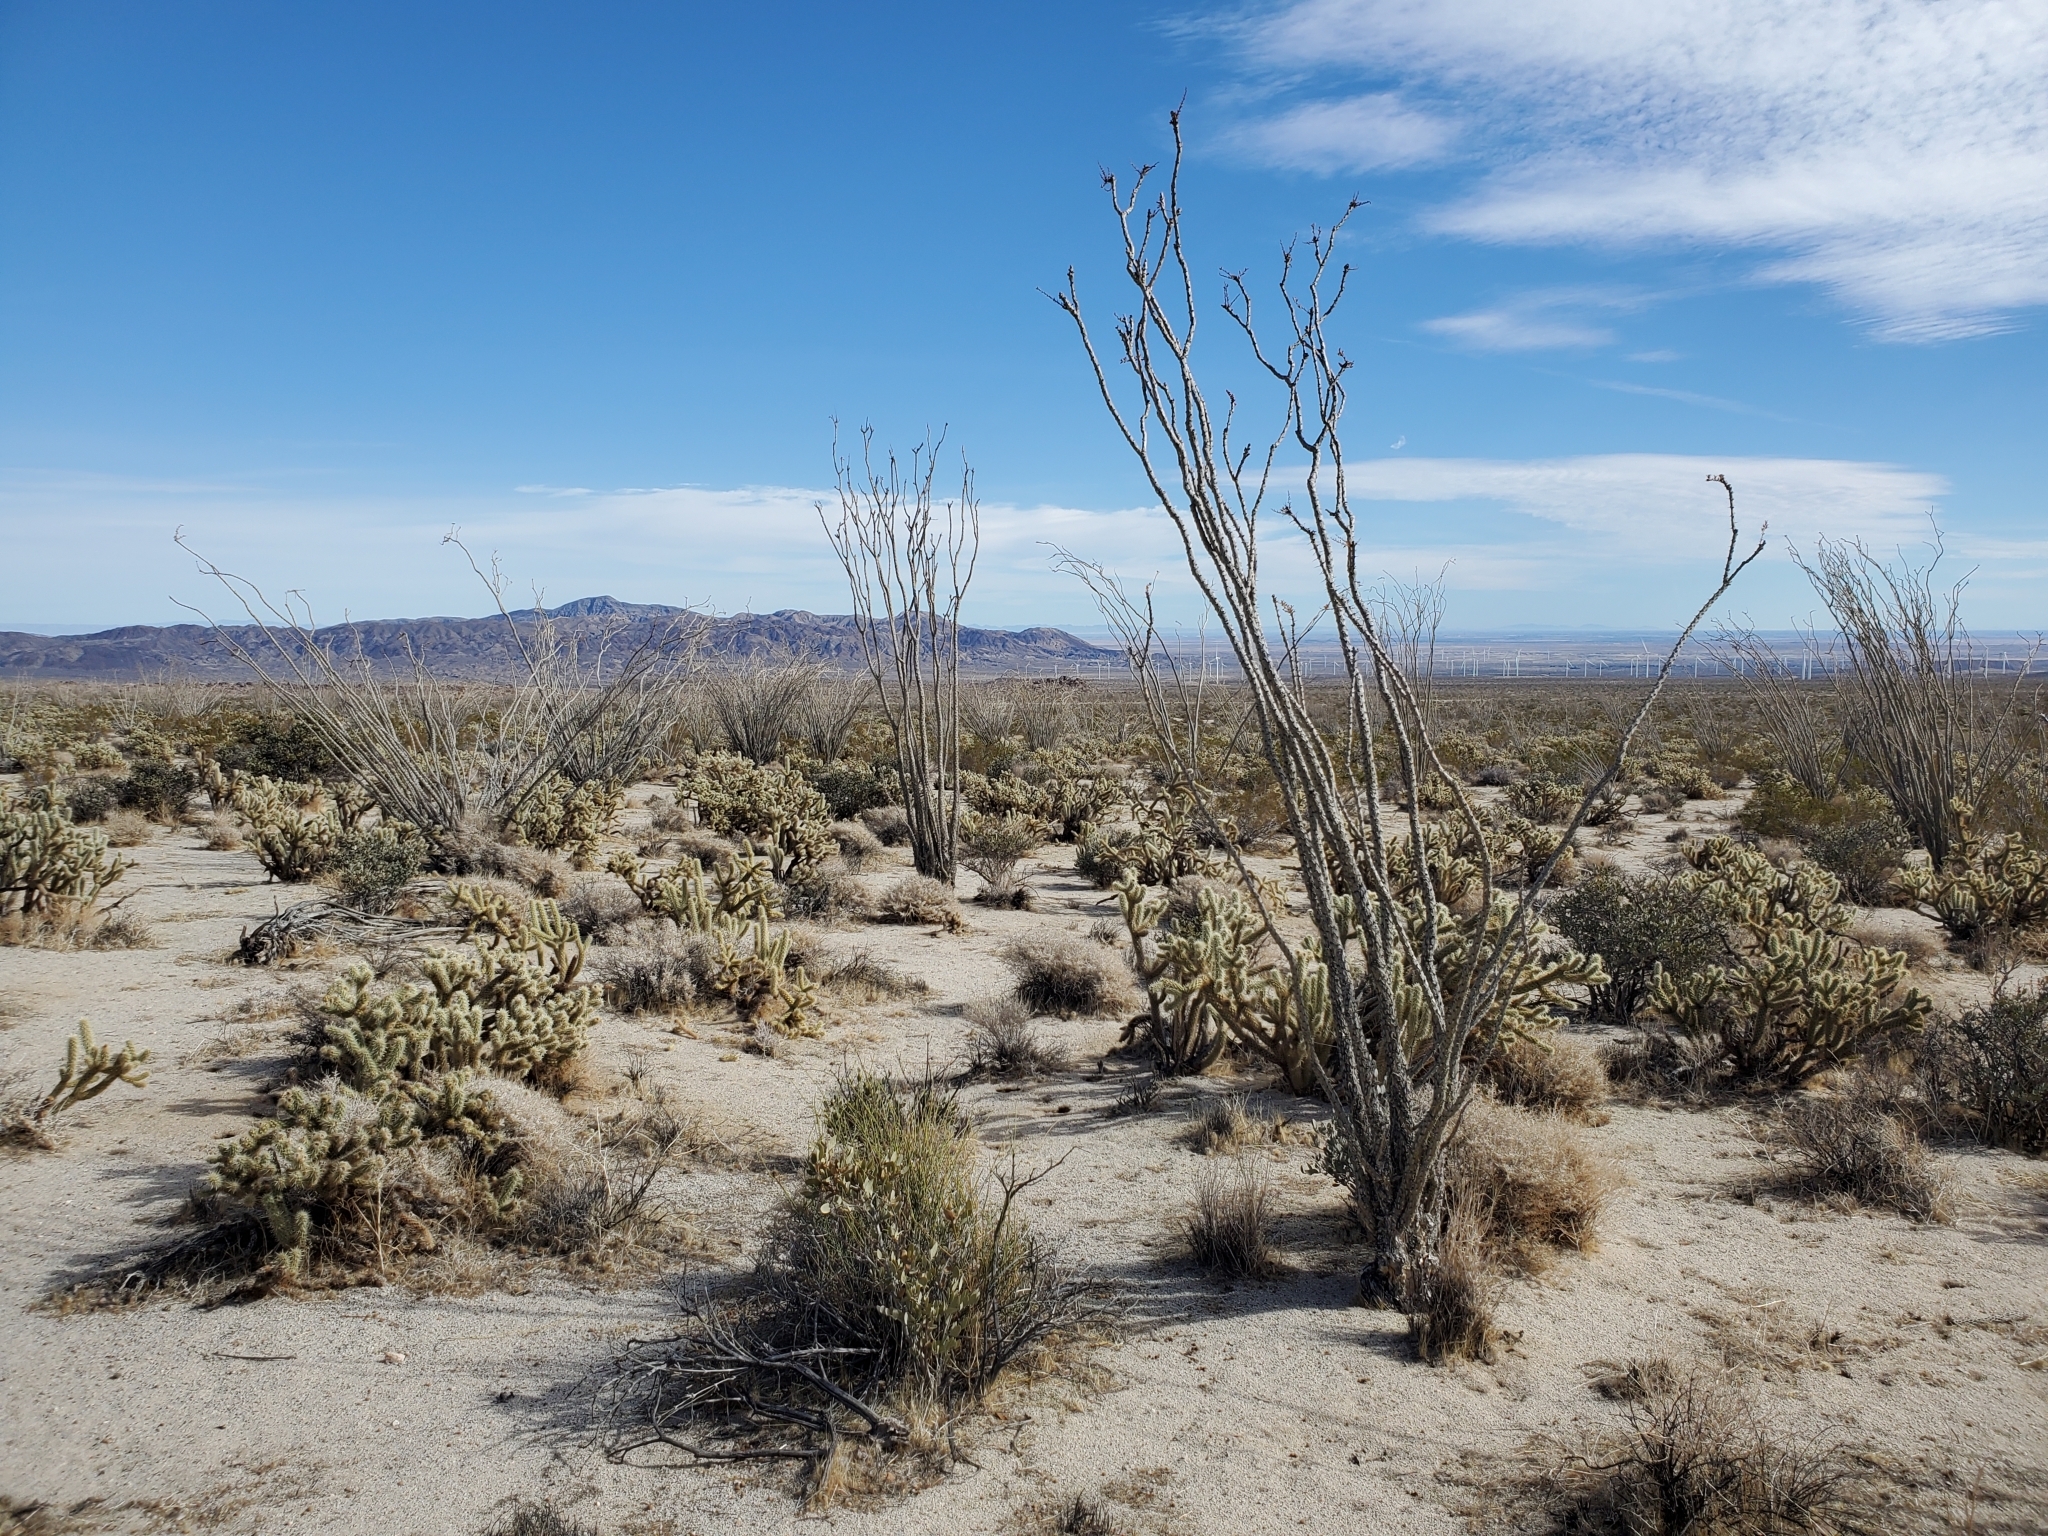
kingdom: Plantae
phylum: Tracheophyta
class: Magnoliopsida
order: Ericales
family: Fouquieriaceae
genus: Fouquieria
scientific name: Fouquieria splendens
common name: Vine-cactus
